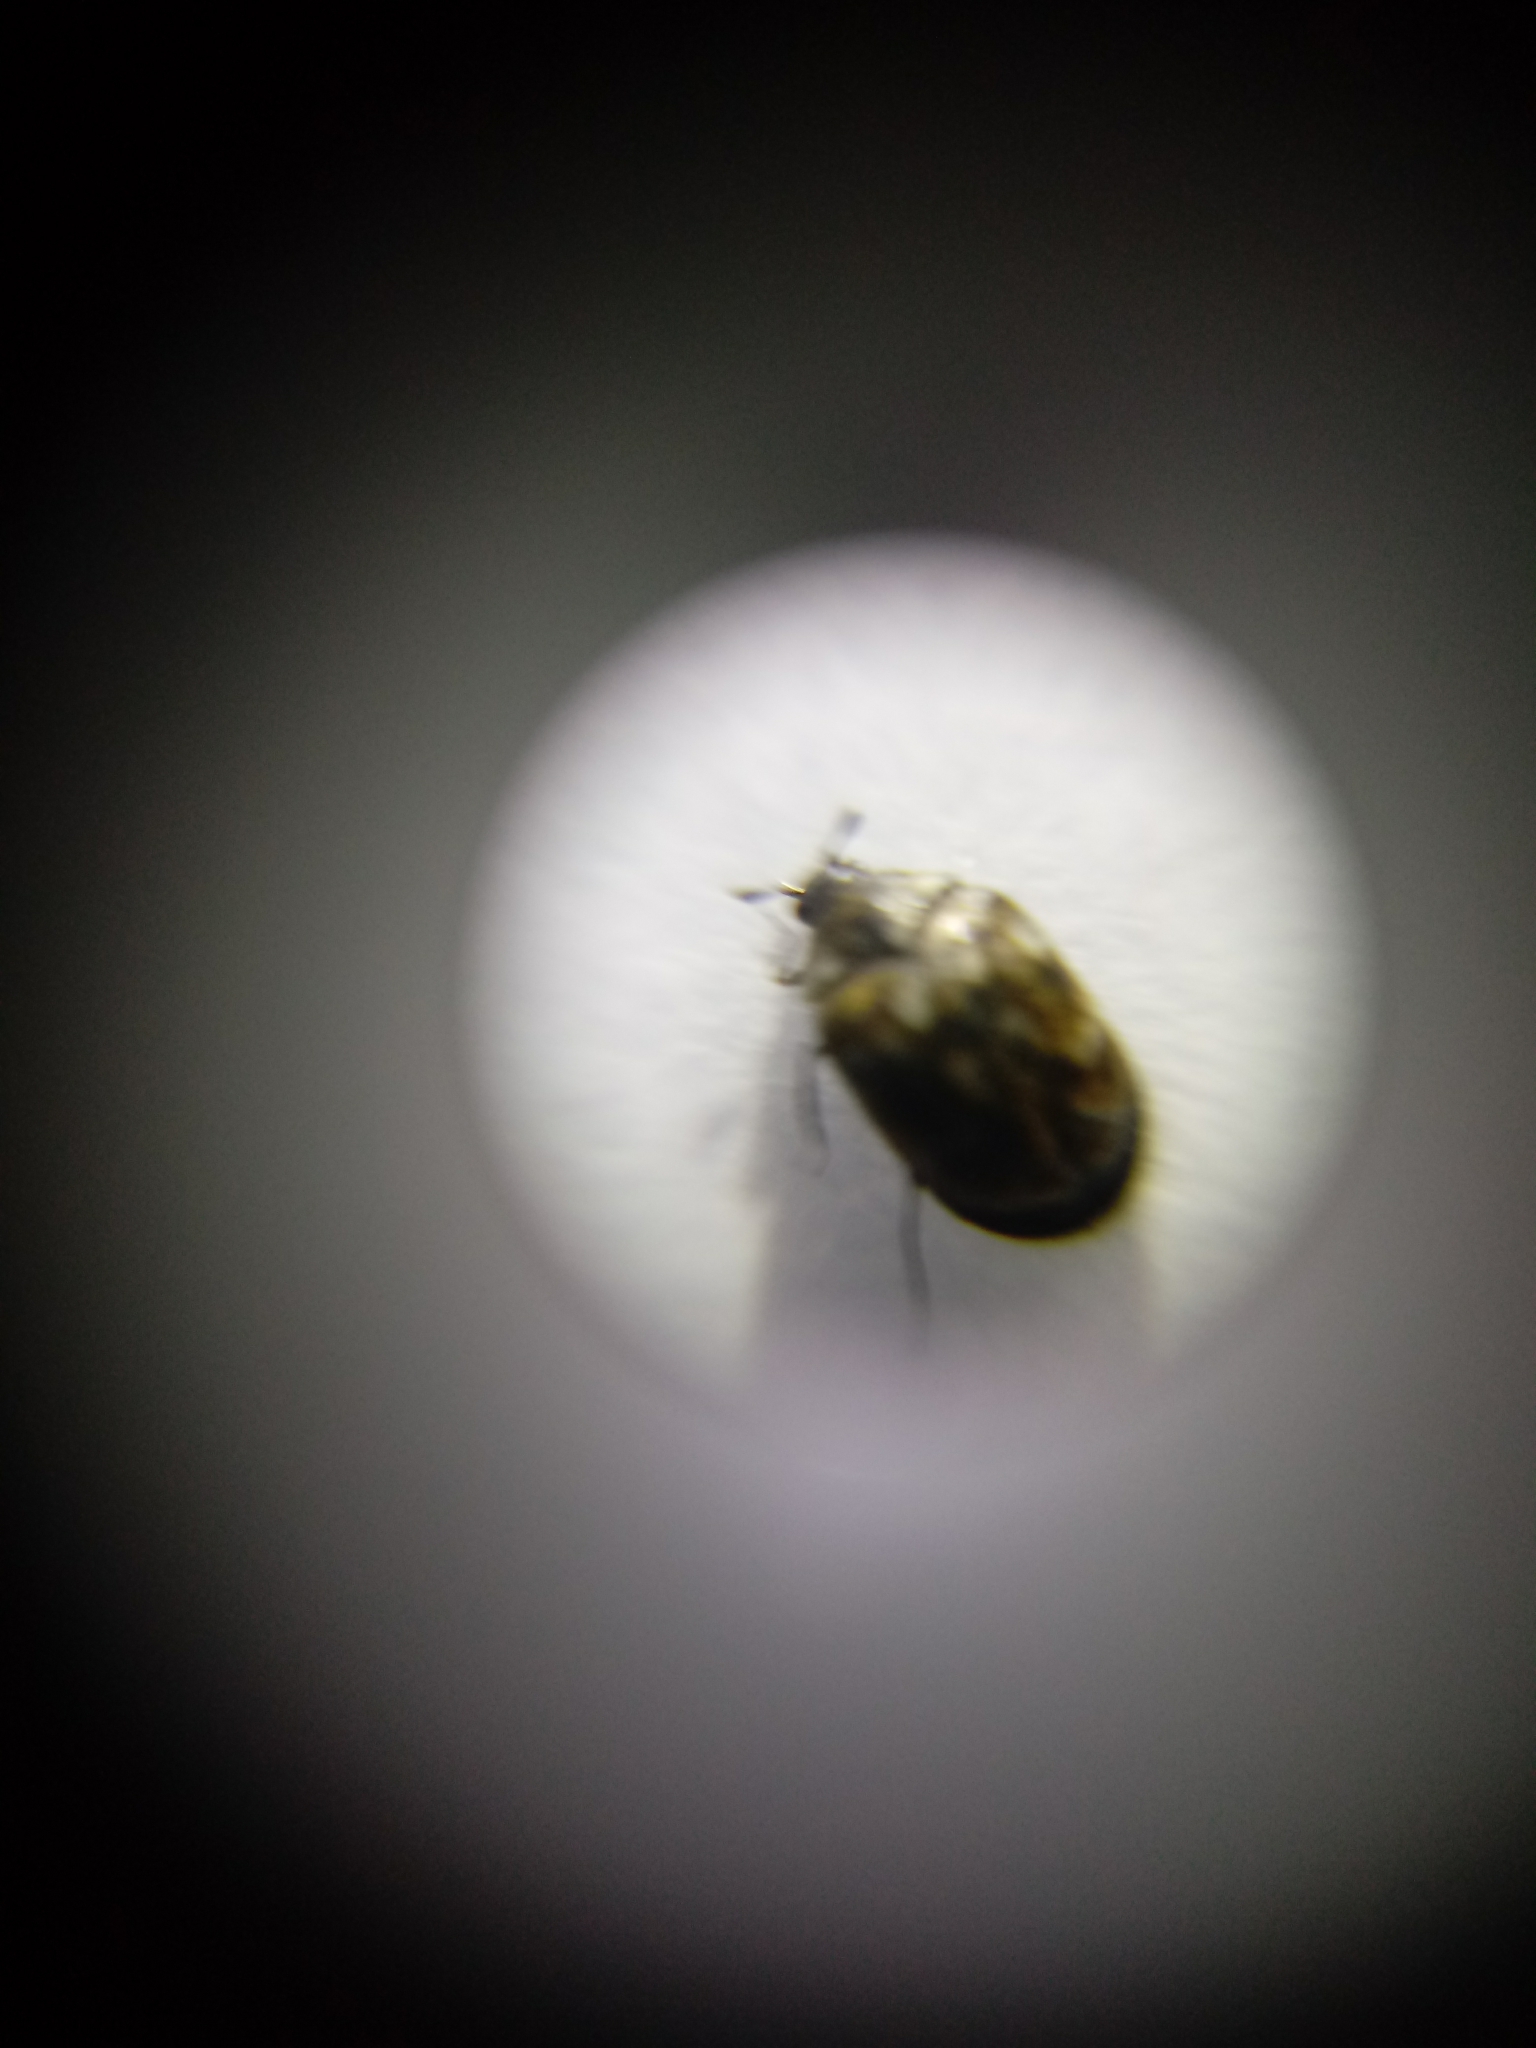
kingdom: Animalia
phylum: Arthropoda
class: Insecta
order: Coleoptera
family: Dermestidae
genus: Anthrenus
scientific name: Anthrenus verbasci
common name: Varied carpet beetle
